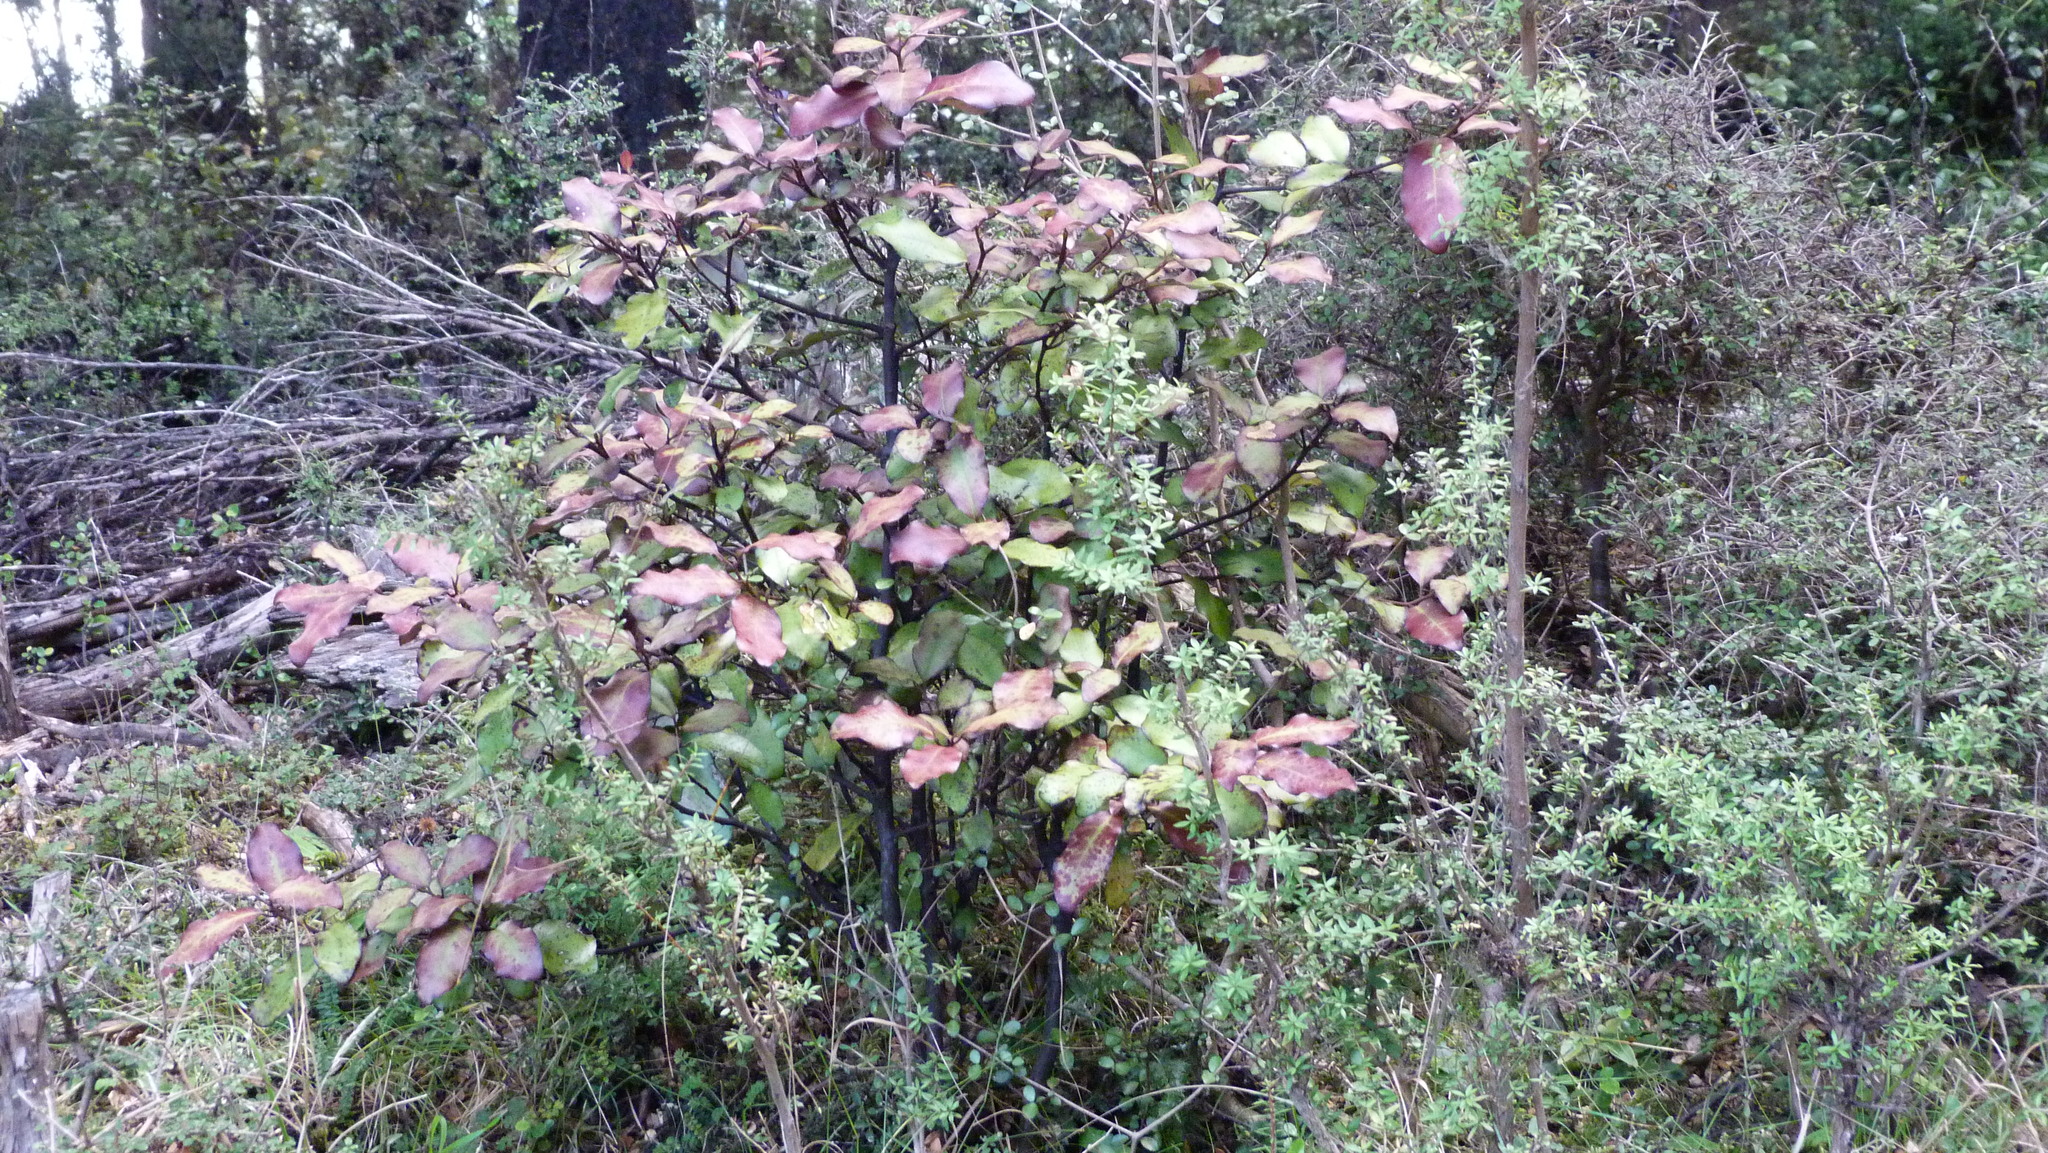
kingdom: Plantae
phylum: Tracheophyta
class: Magnoliopsida
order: Canellales
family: Winteraceae
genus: Pseudowintera
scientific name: Pseudowintera colorata
